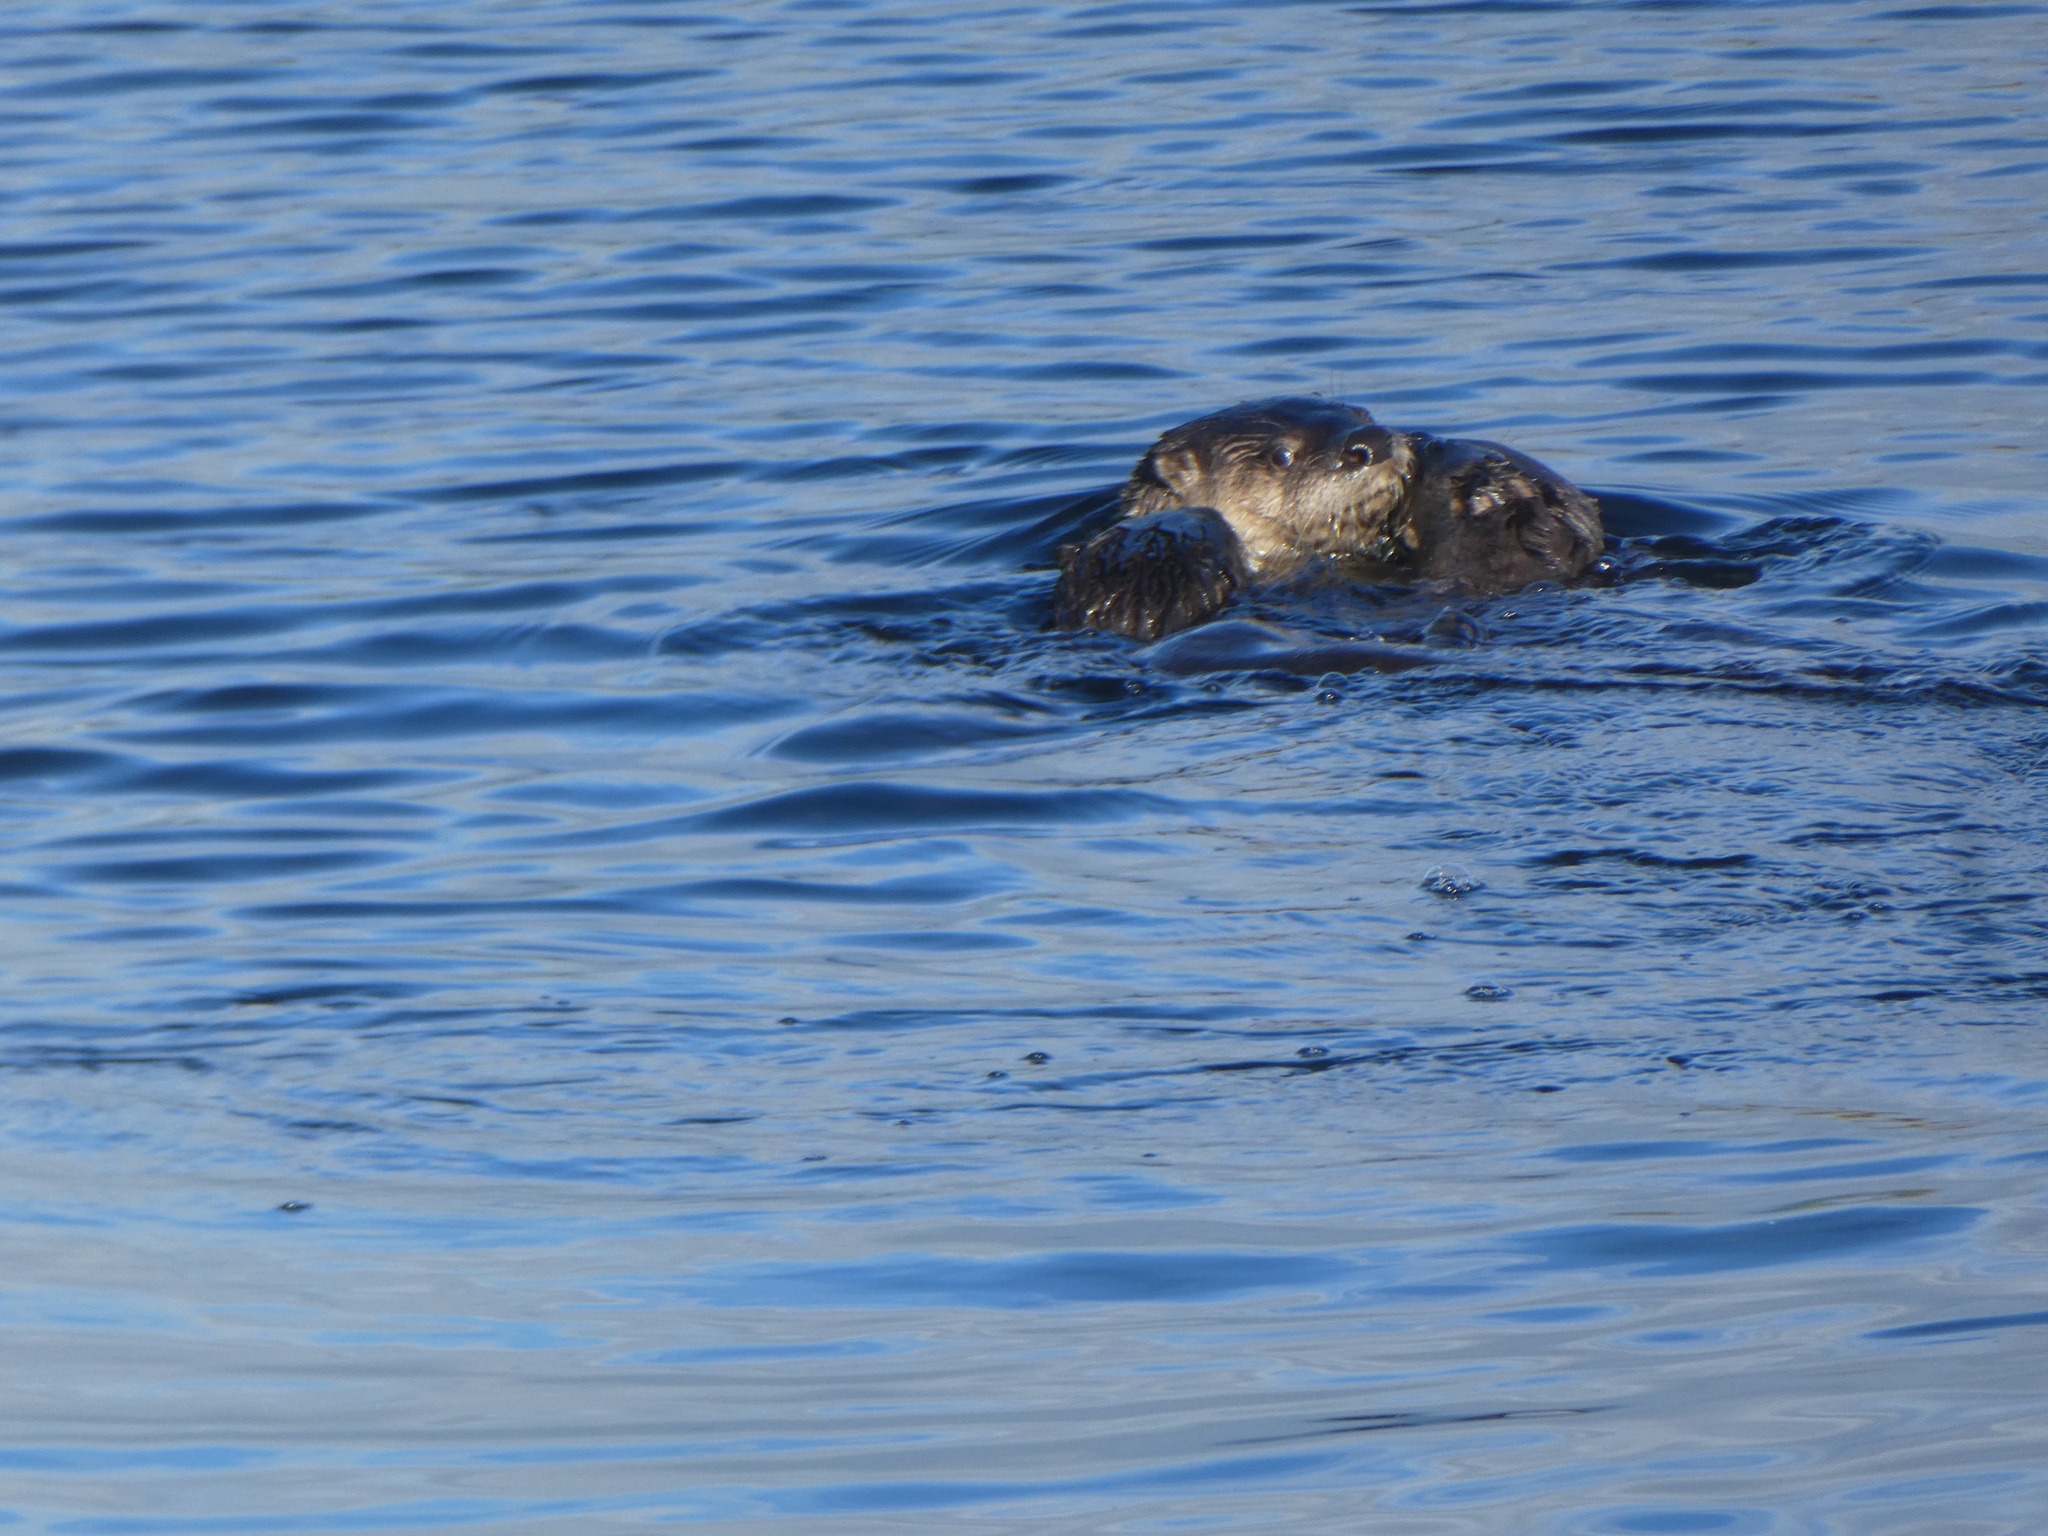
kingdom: Animalia
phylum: Chordata
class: Mammalia
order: Carnivora
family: Mustelidae
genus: Lontra
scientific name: Lontra canadensis
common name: North american river otter
